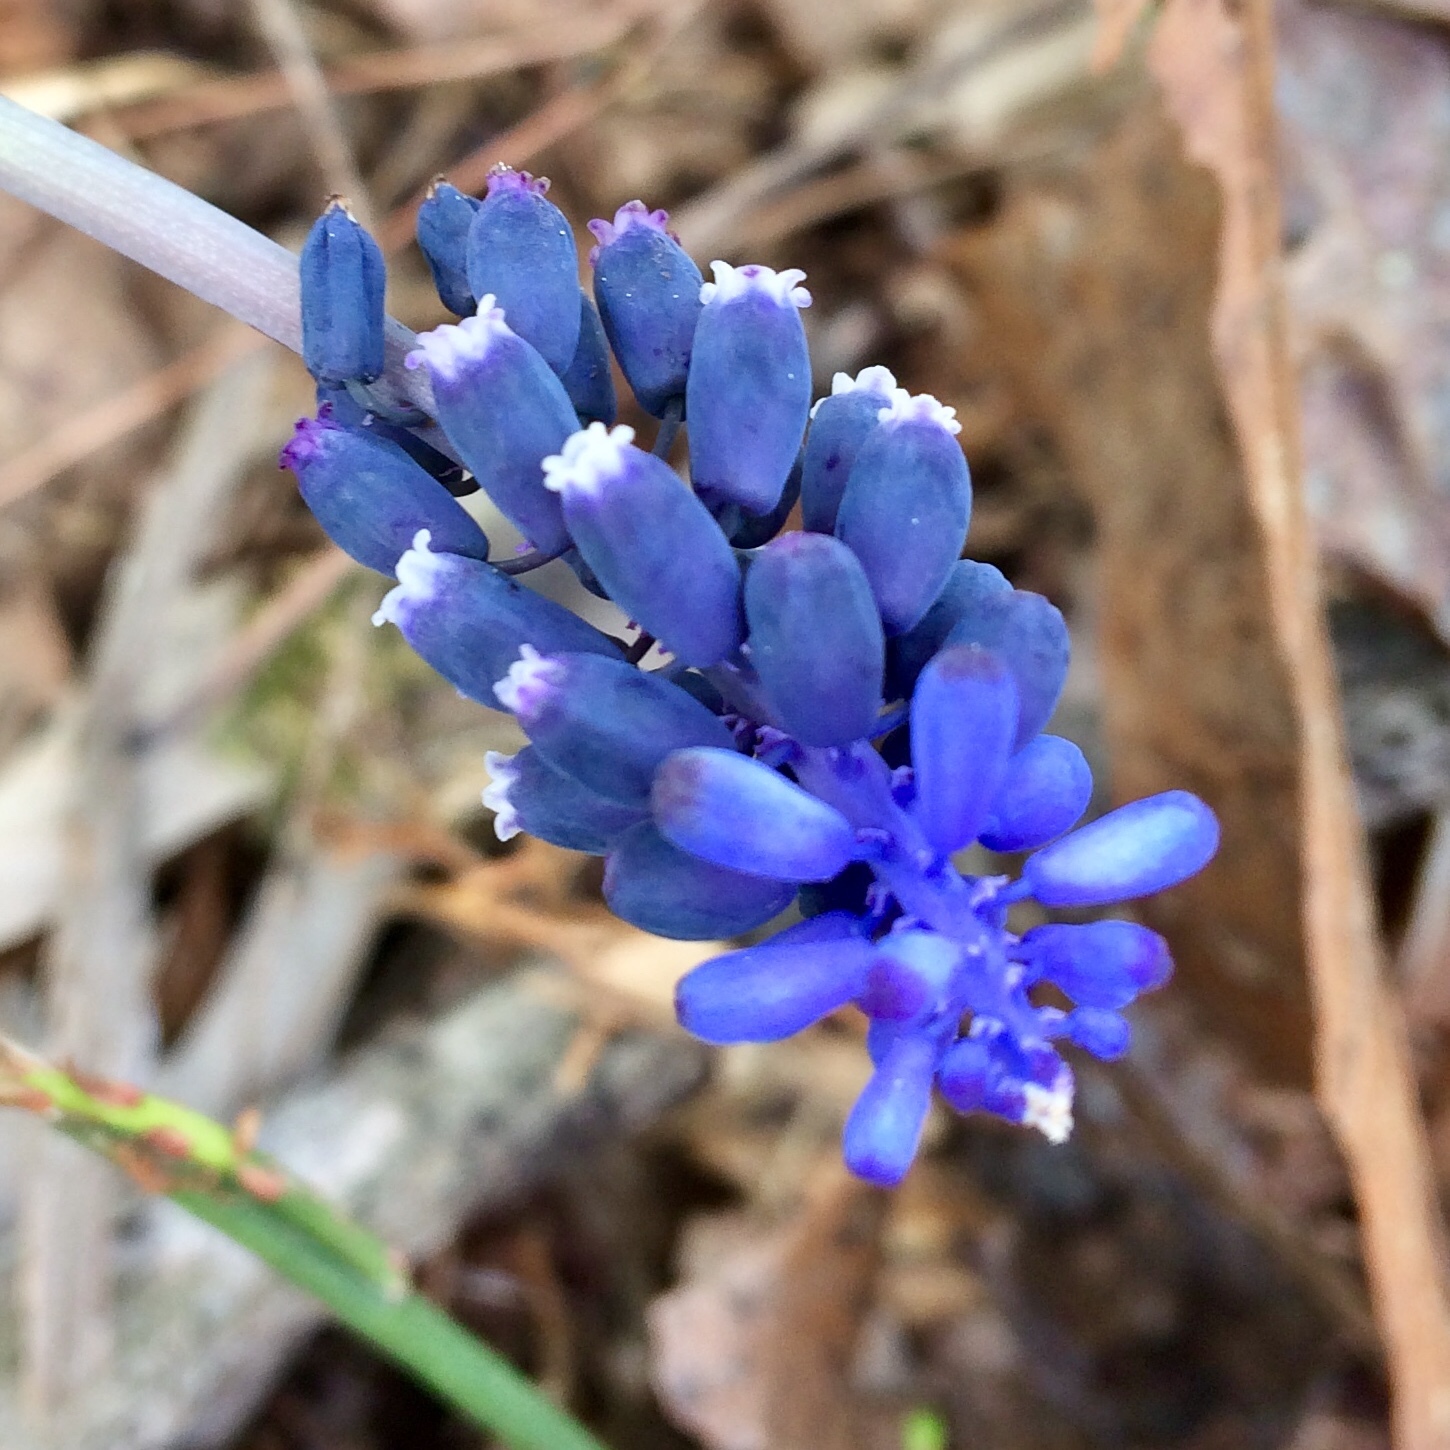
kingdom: Plantae
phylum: Tracheophyta
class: Liliopsida
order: Asparagales
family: Asparagaceae
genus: Muscari
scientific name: Muscari neglectum
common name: Grape-hyacinth
